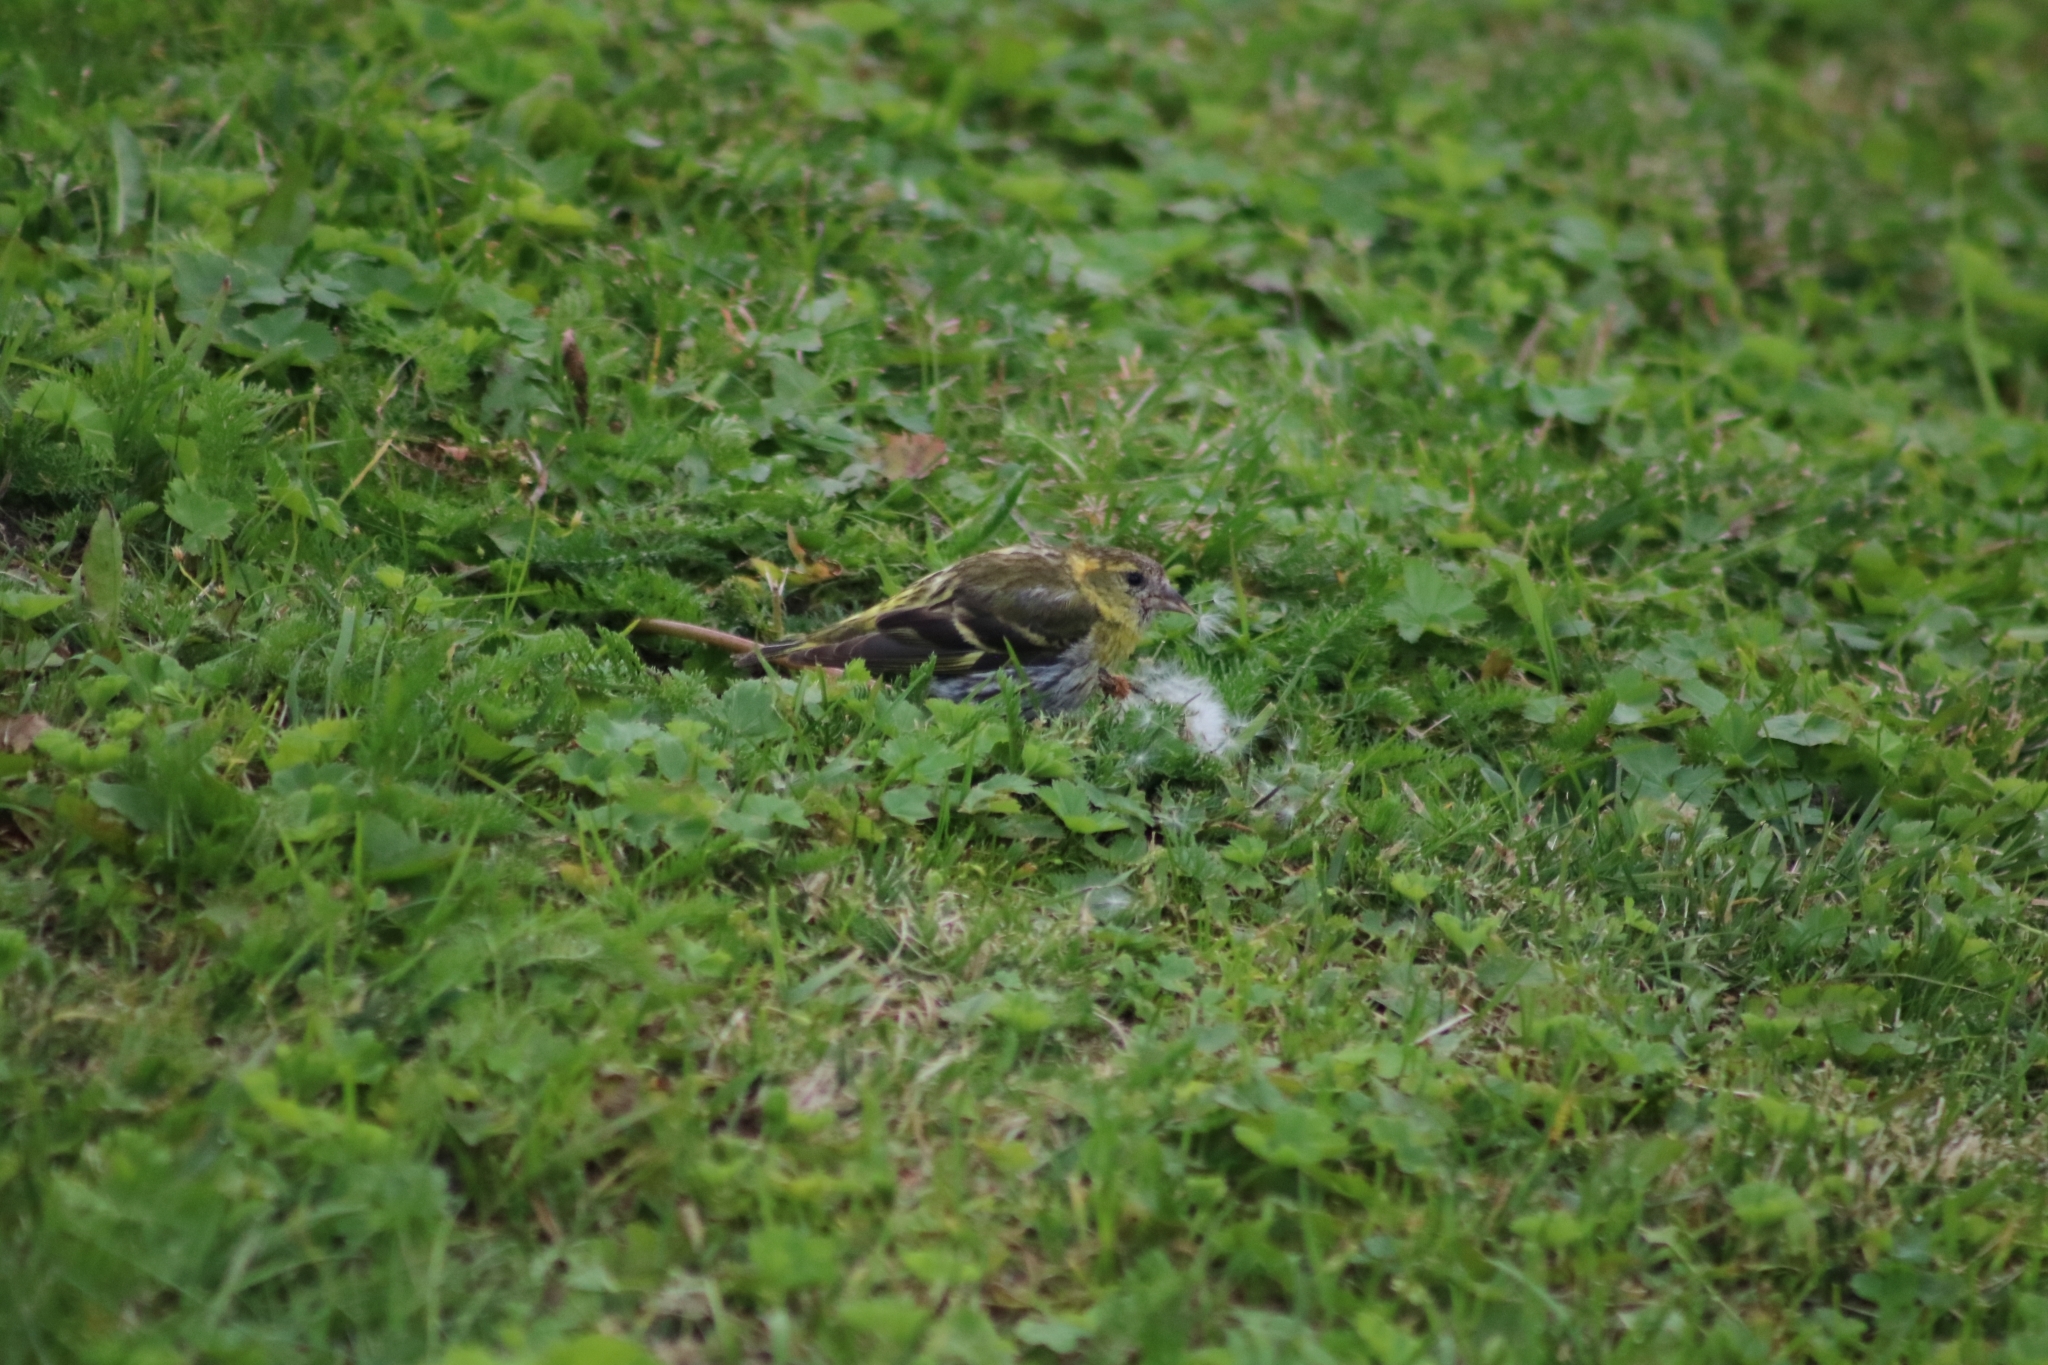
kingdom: Animalia
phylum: Chordata
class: Aves
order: Passeriformes
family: Fringillidae
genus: Spinus
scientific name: Spinus spinus
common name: Eurasian siskin
